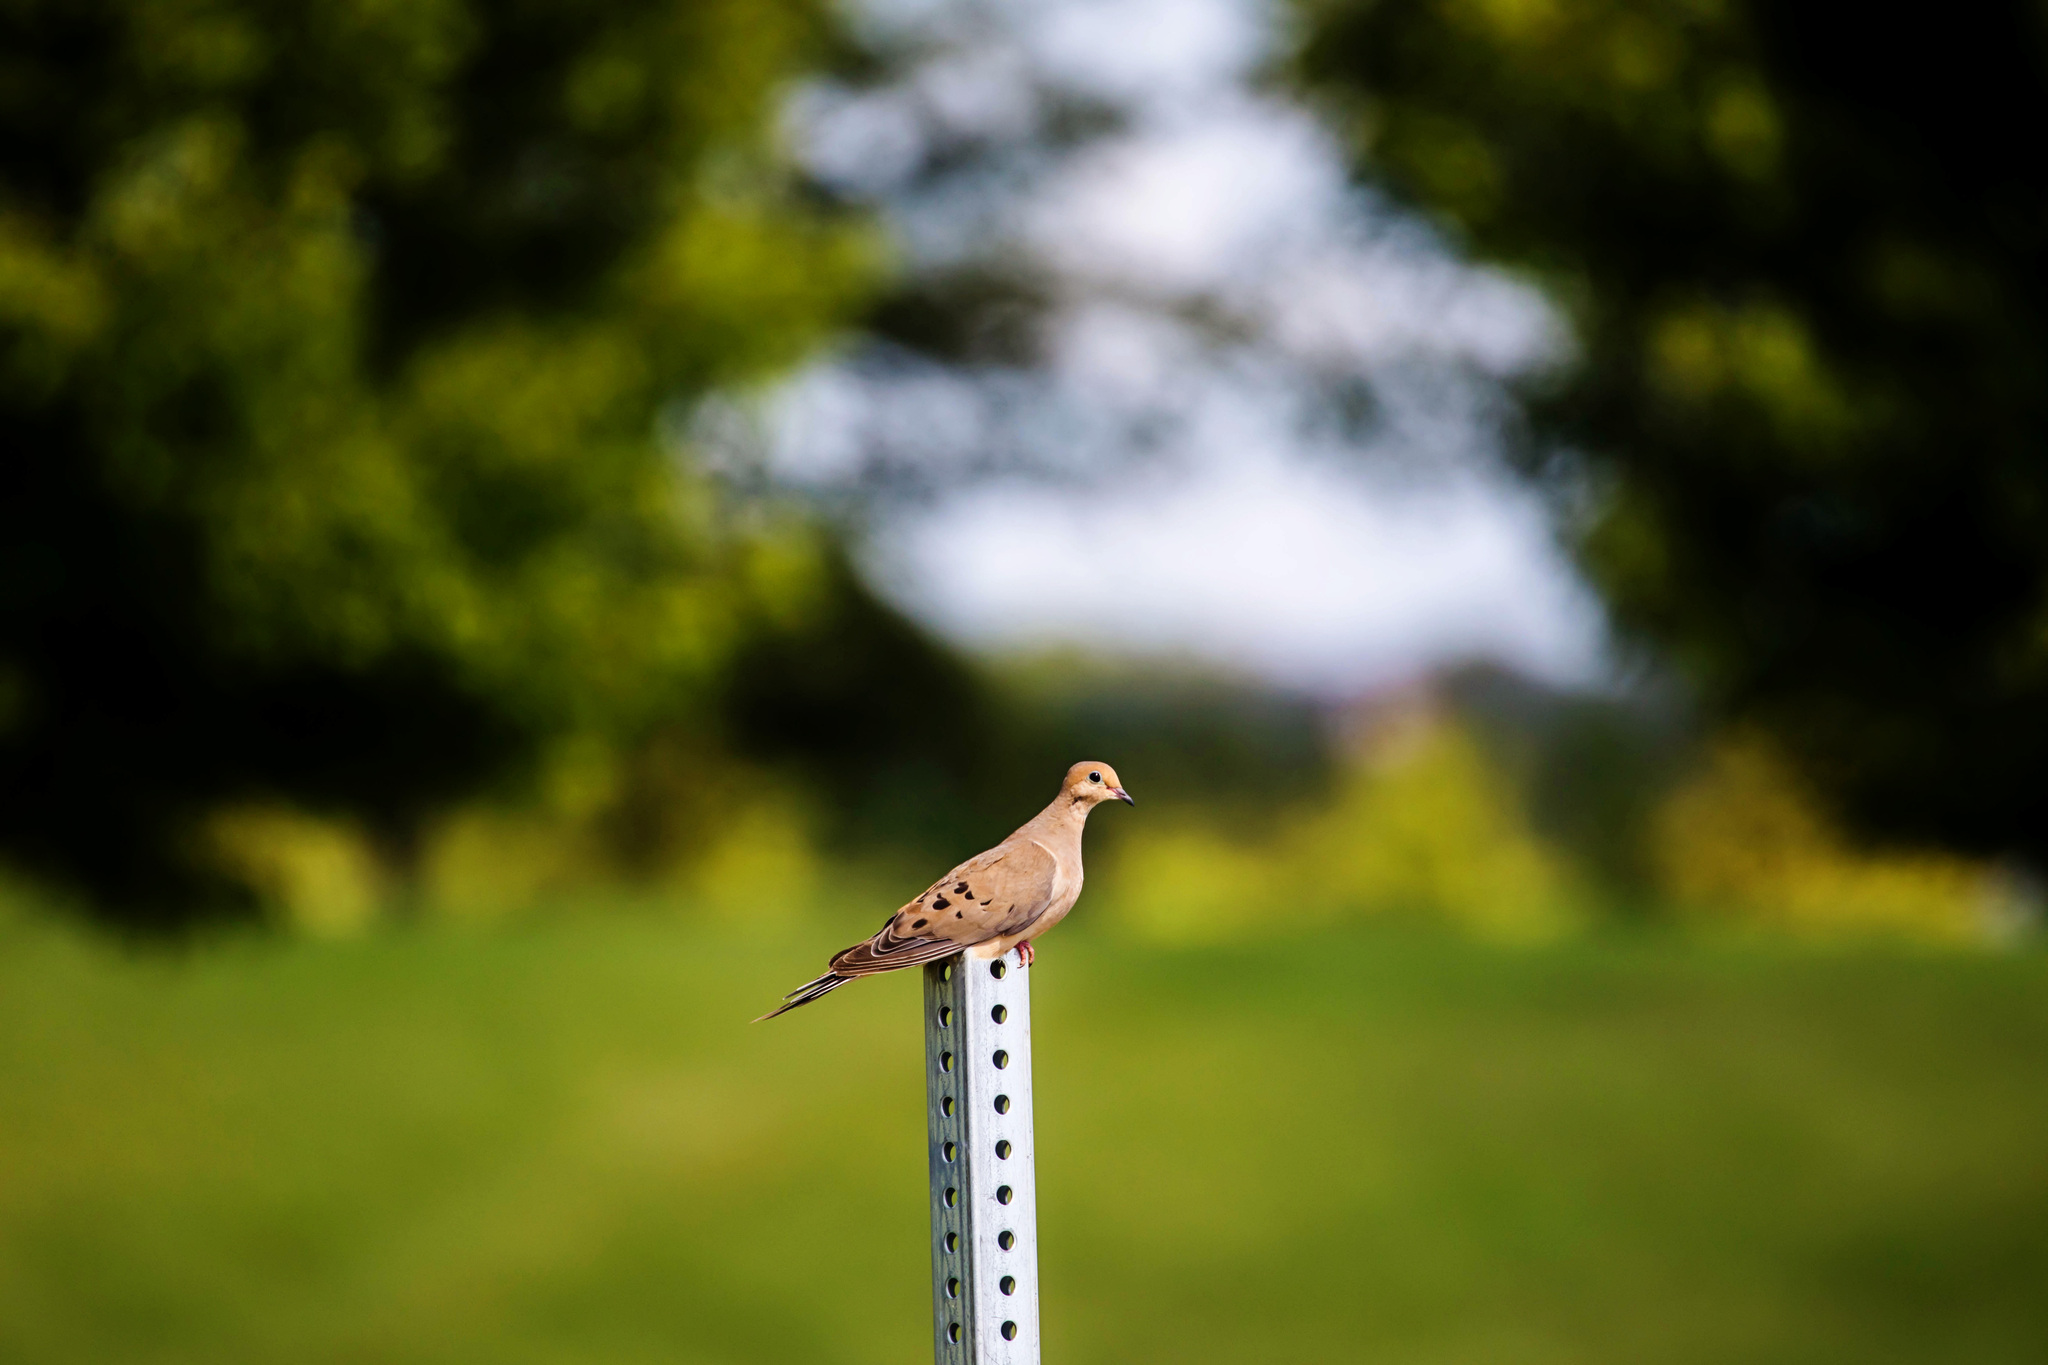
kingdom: Animalia
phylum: Chordata
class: Aves
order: Columbiformes
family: Columbidae
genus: Zenaida
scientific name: Zenaida macroura
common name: Mourning dove
